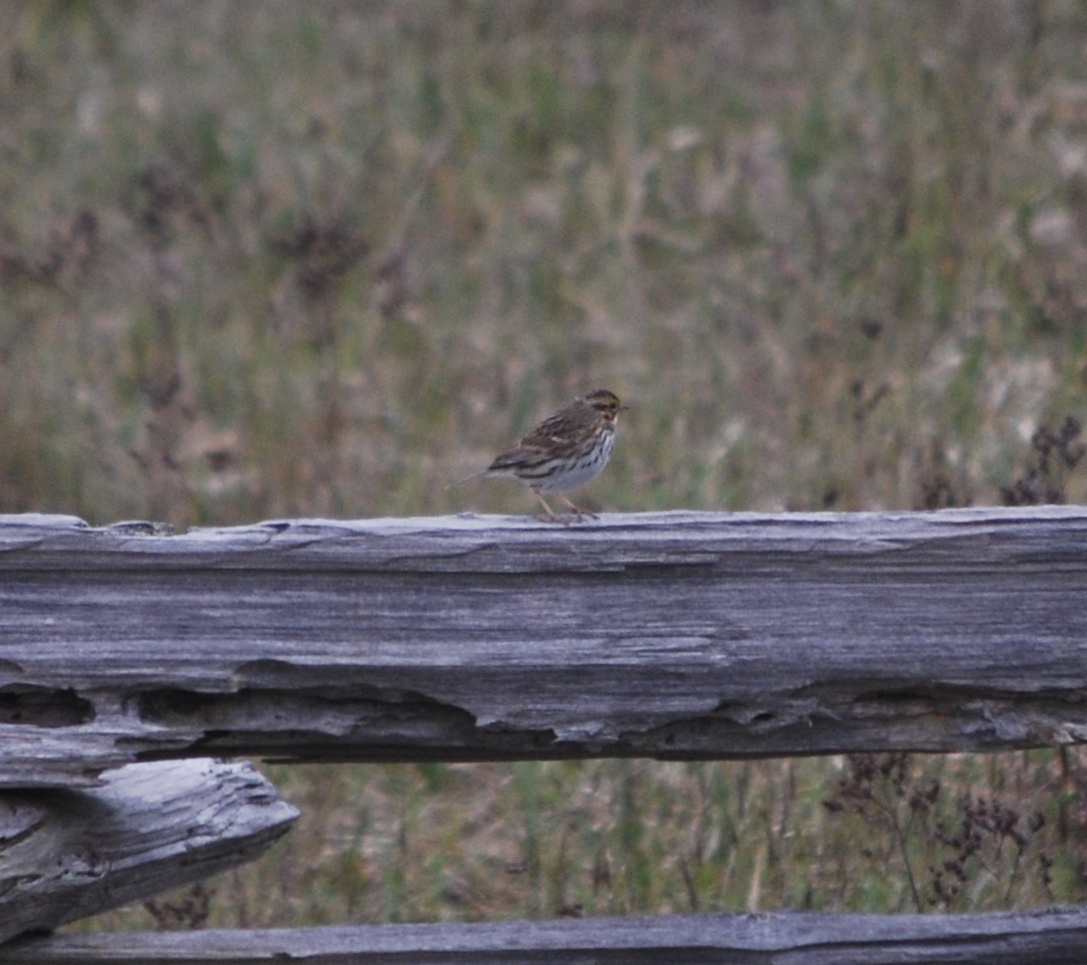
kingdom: Animalia
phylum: Chordata
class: Aves
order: Passeriformes
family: Passerellidae
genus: Passerculus
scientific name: Passerculus sandwichensis
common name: Savannah sparrow
